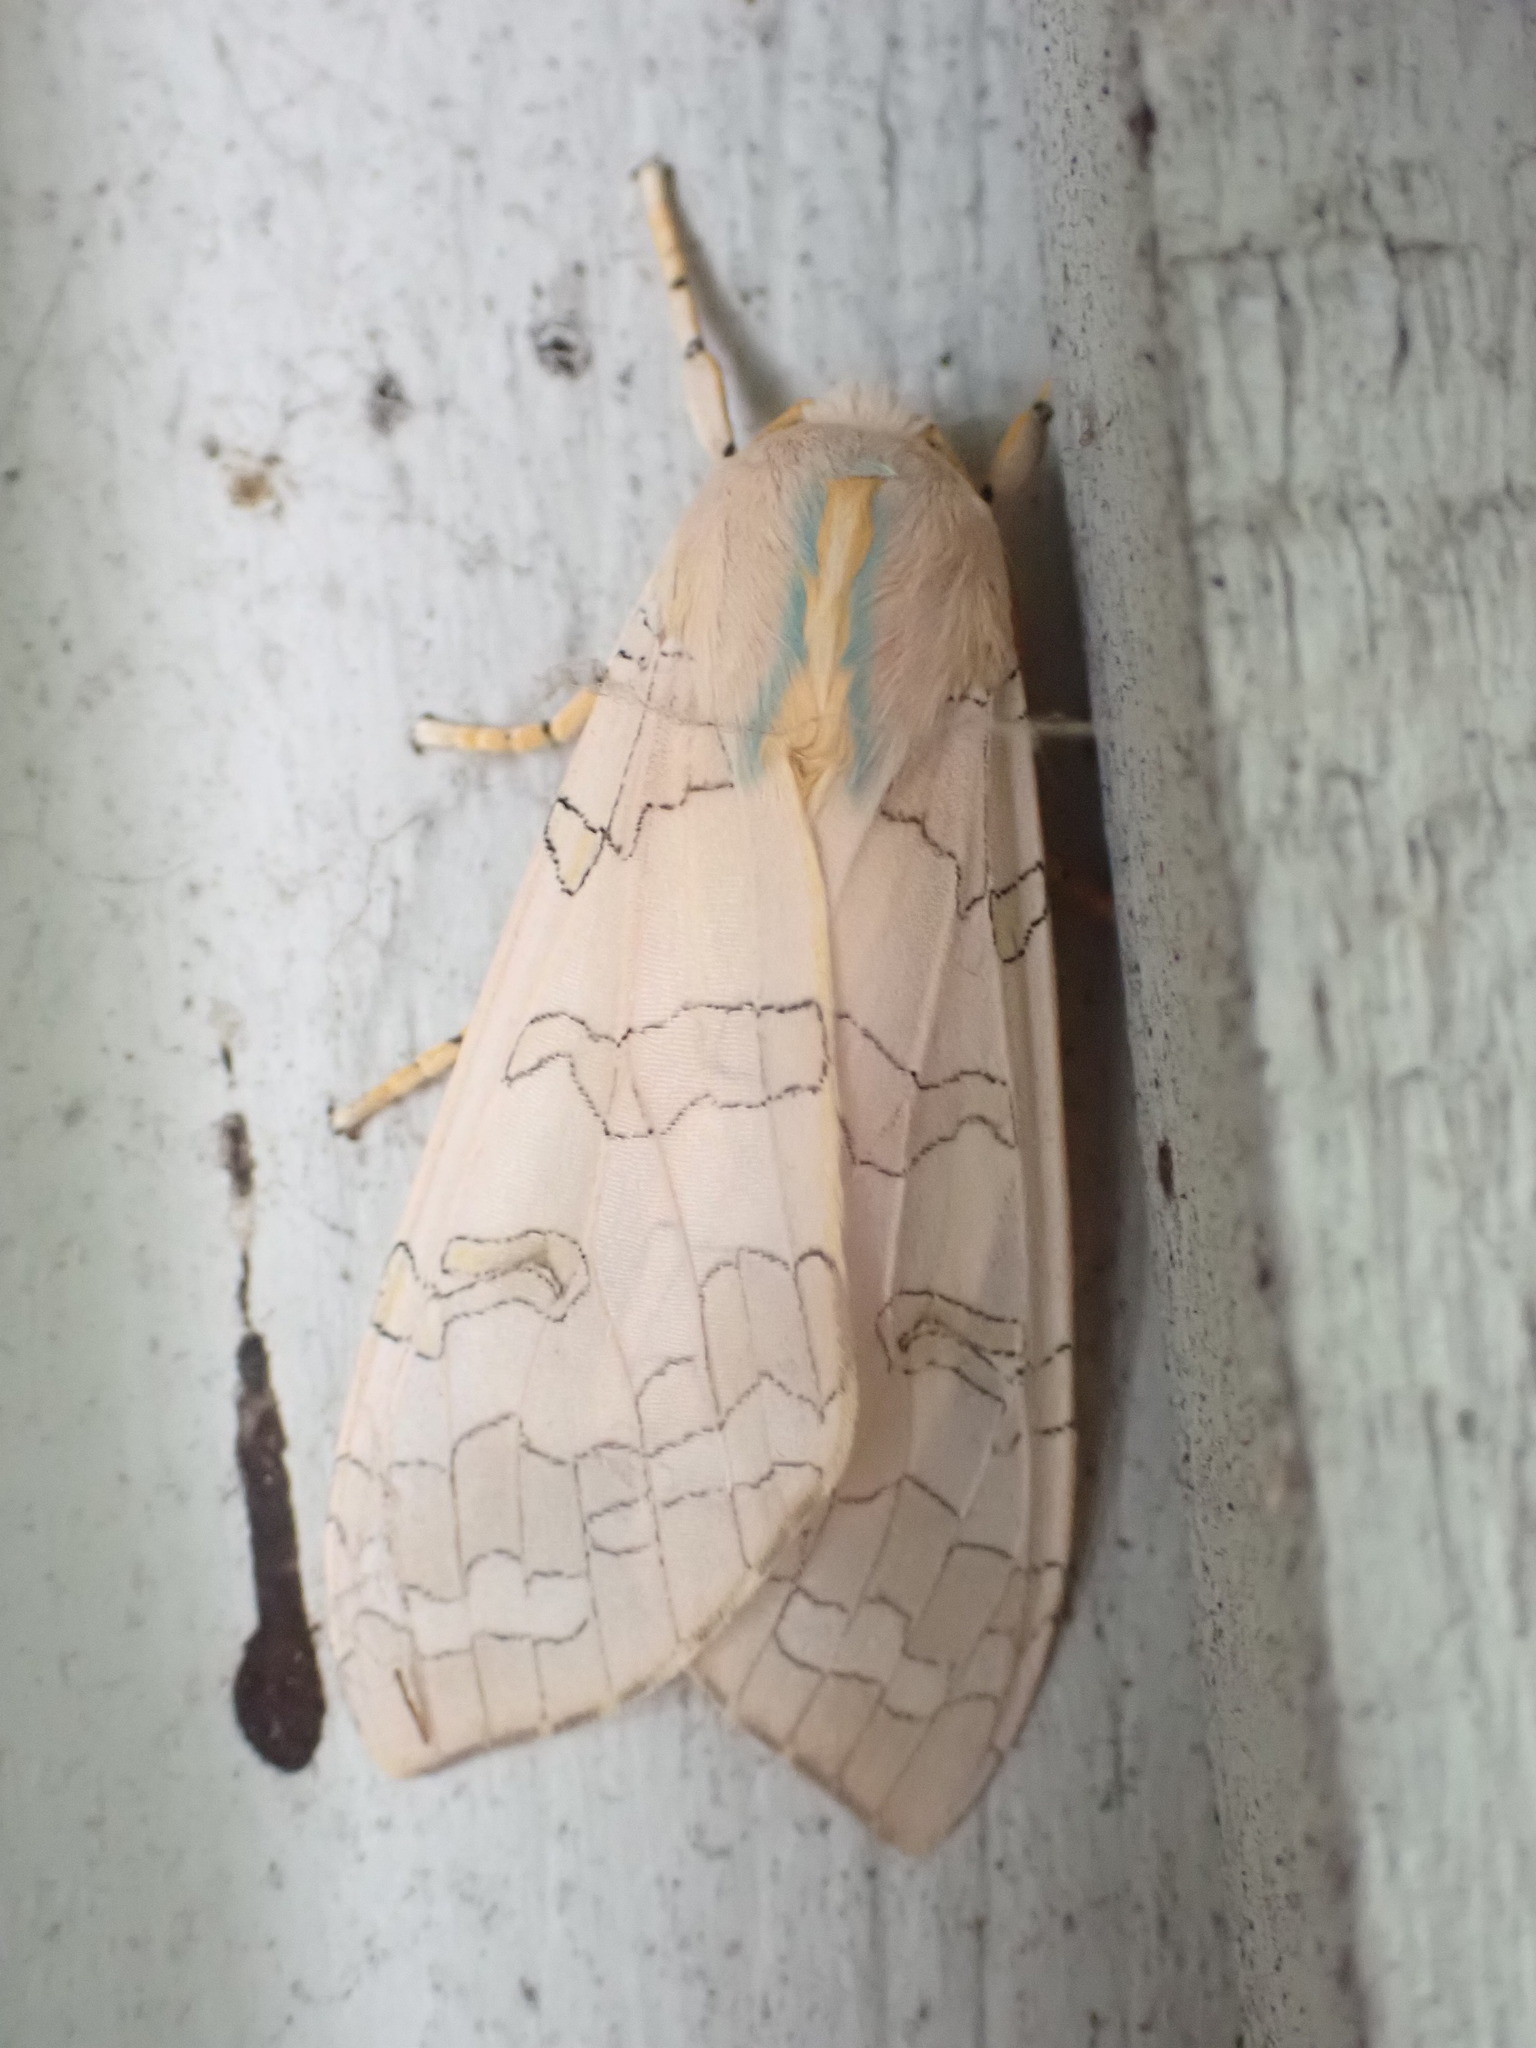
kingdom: Animalia
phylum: Arthropoda
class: Insecta
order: Lepidoptera
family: Erebidae
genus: Halysidota
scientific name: Halysidota tessellaris
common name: Banded tussock moth
